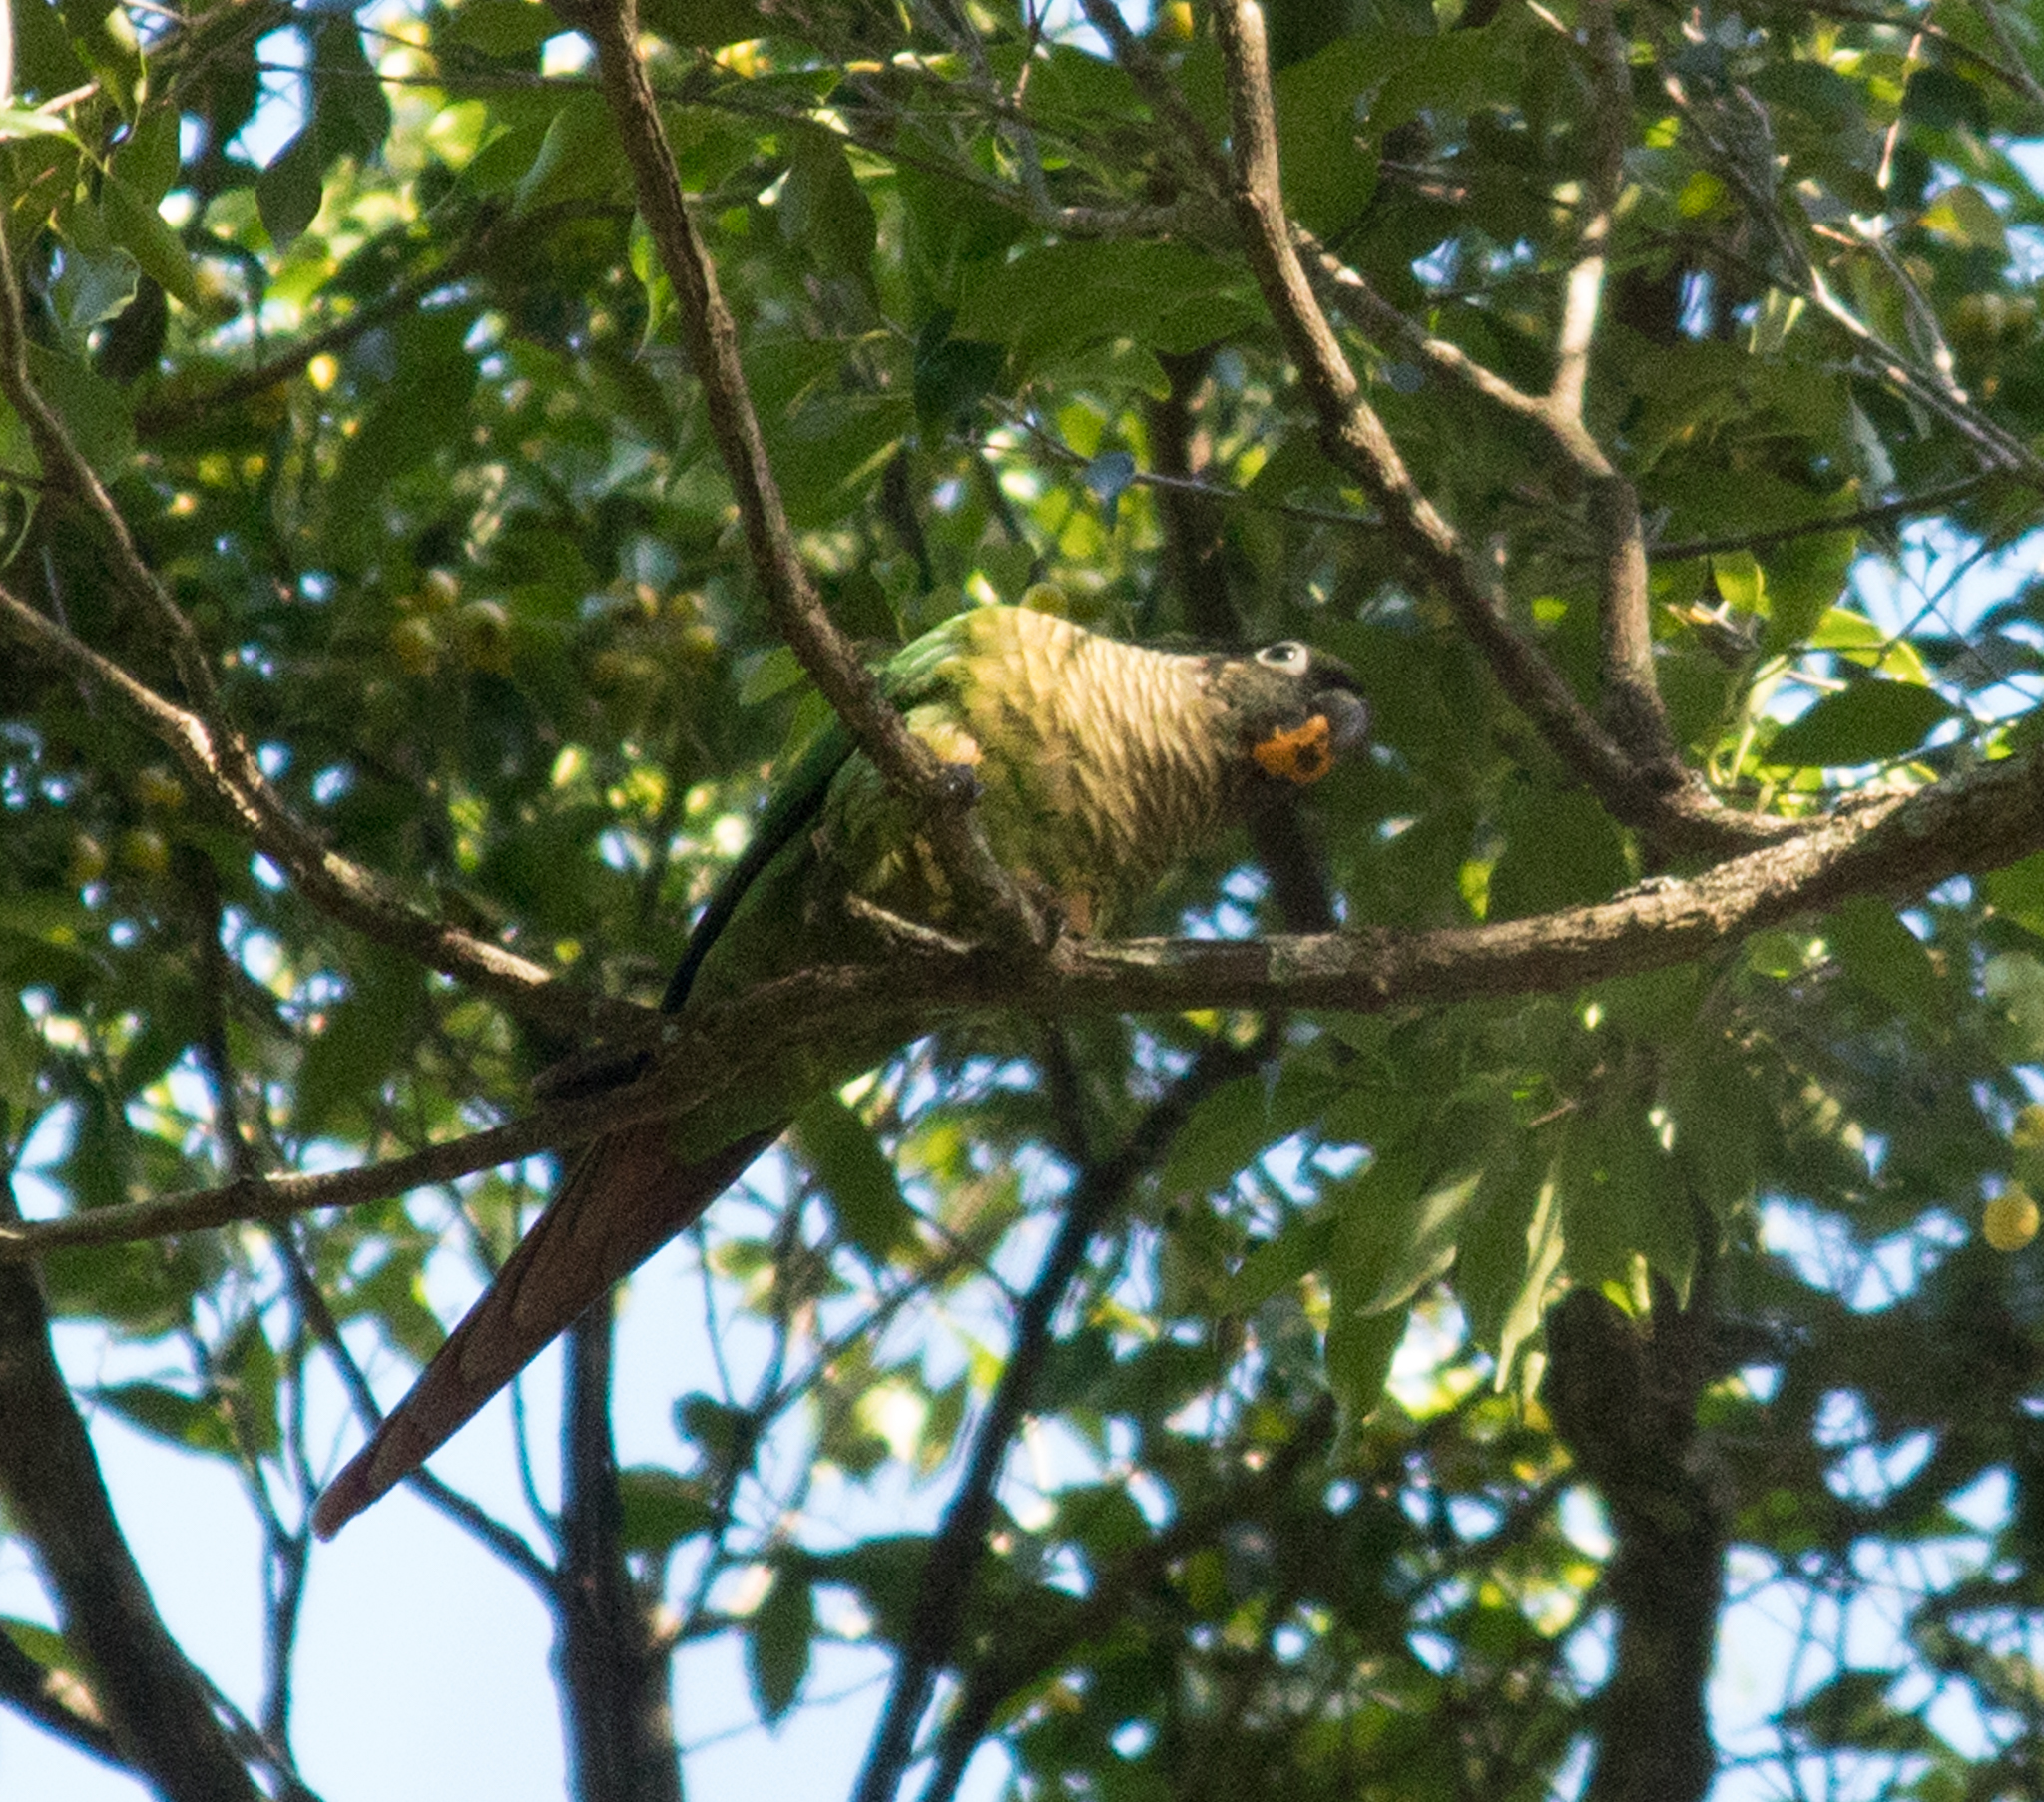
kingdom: Animalia
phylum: Chordata
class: Aves
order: Psittaciformes
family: Psittacidae
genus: Pyrrhura
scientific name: Pyrrhura frontalis
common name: Maroon-bellied parakeet
